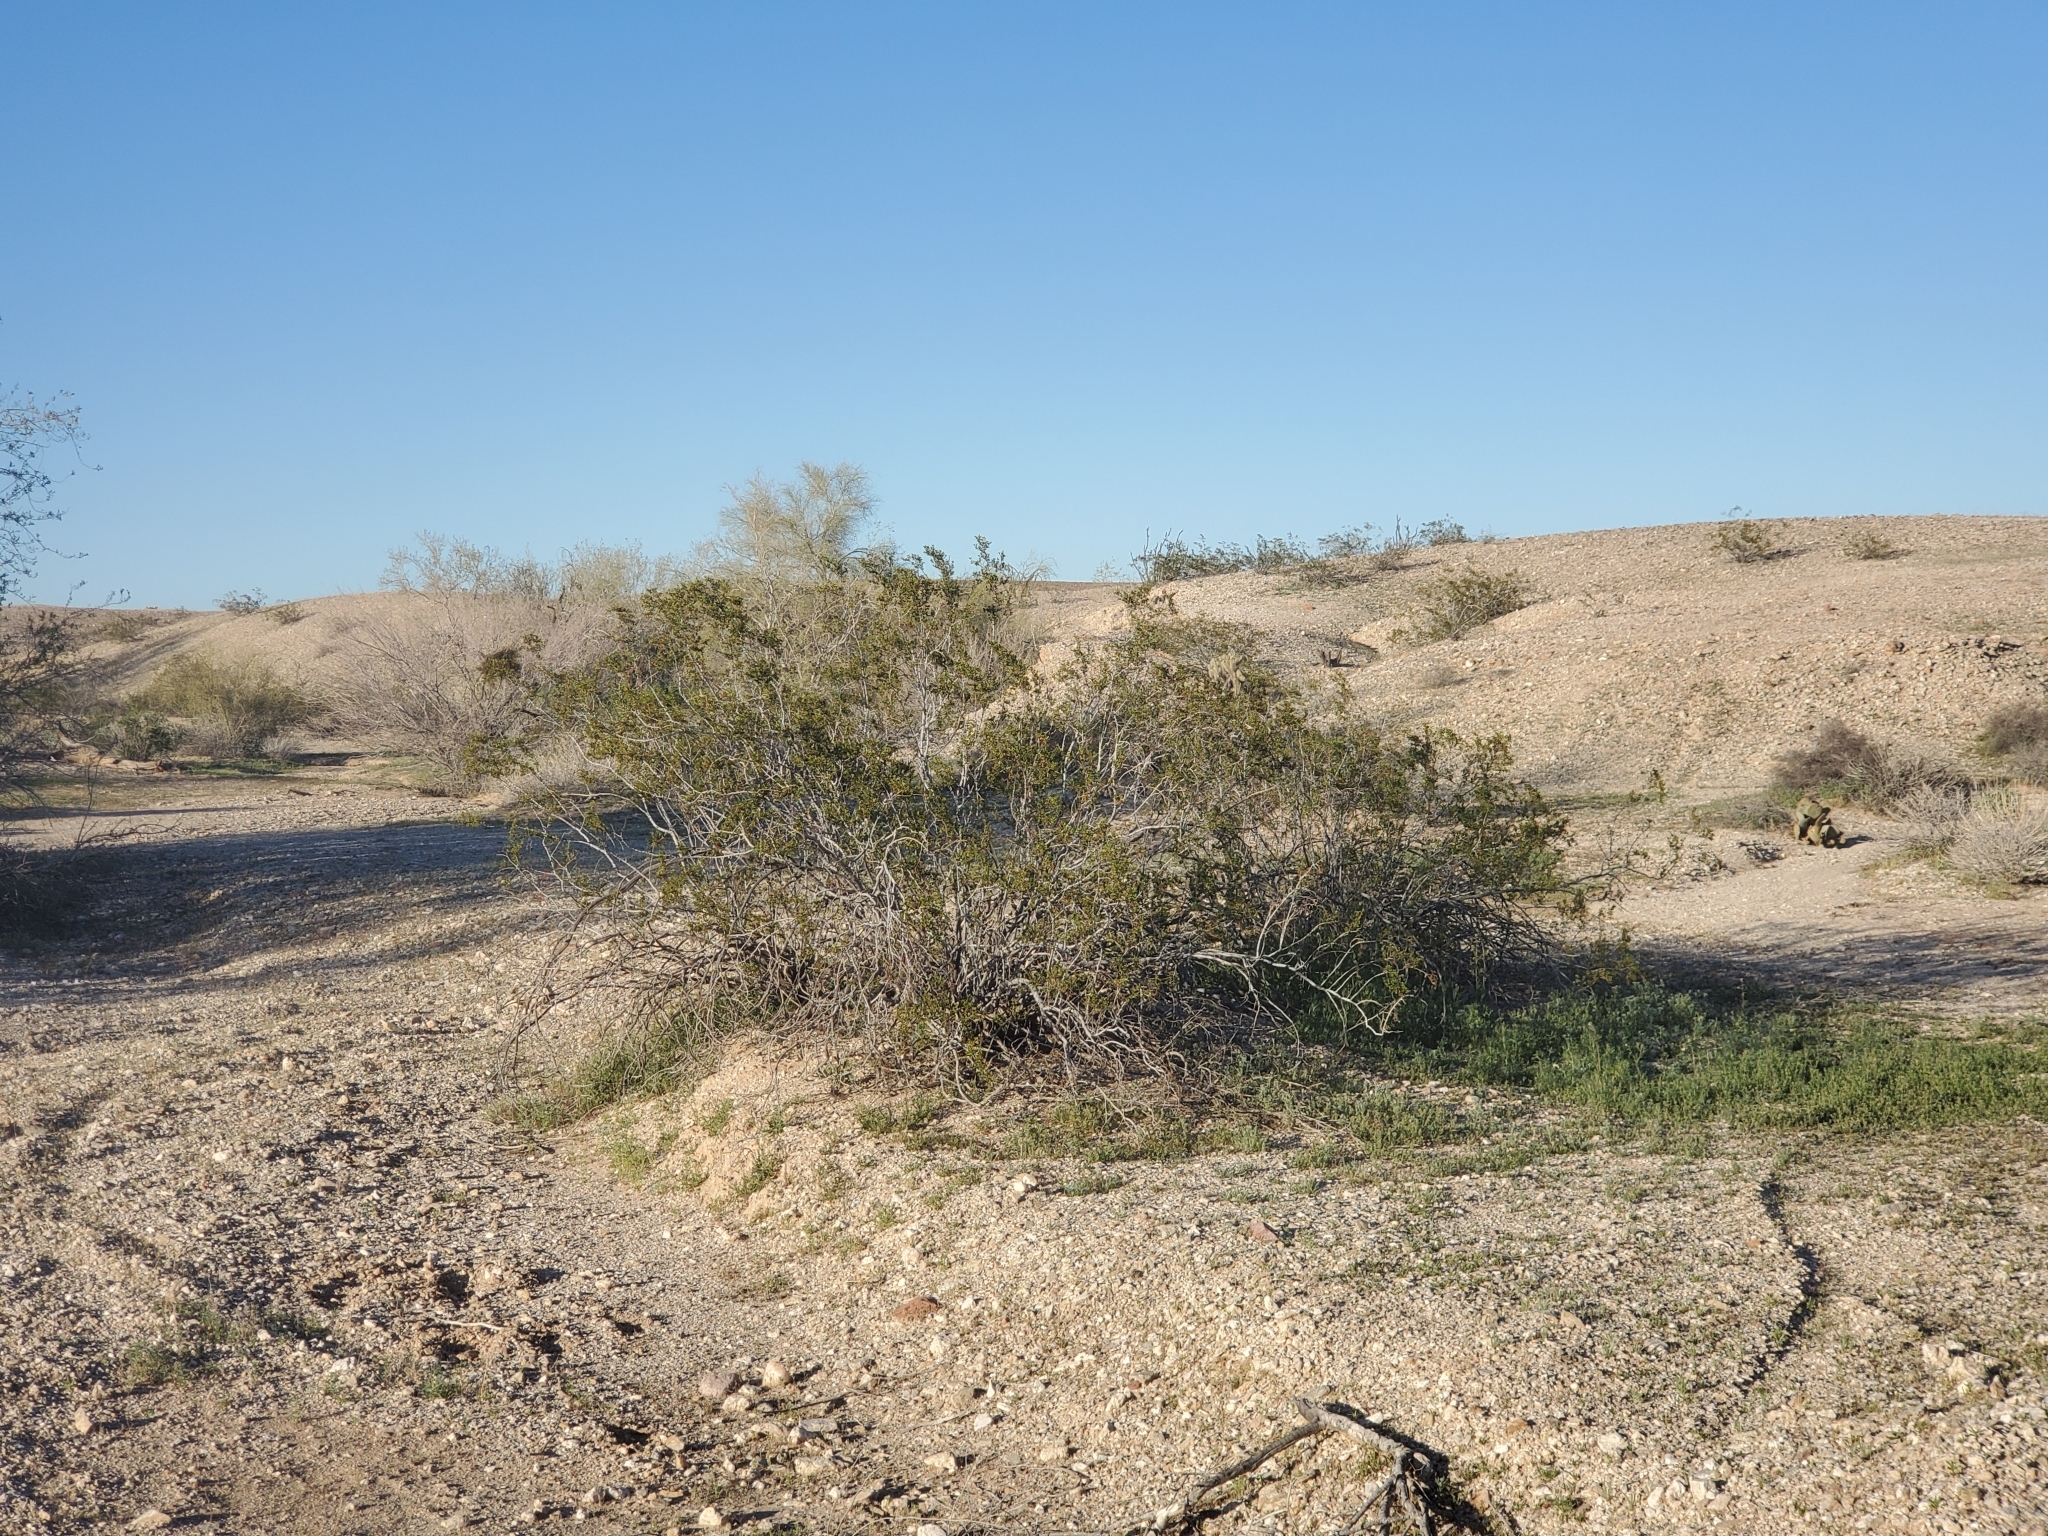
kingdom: Plantae
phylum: Tracheophyta
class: Magnoliopsida
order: Zygophyllales
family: Zygophyllaceae
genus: Larrea
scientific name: Larrea tridentata
